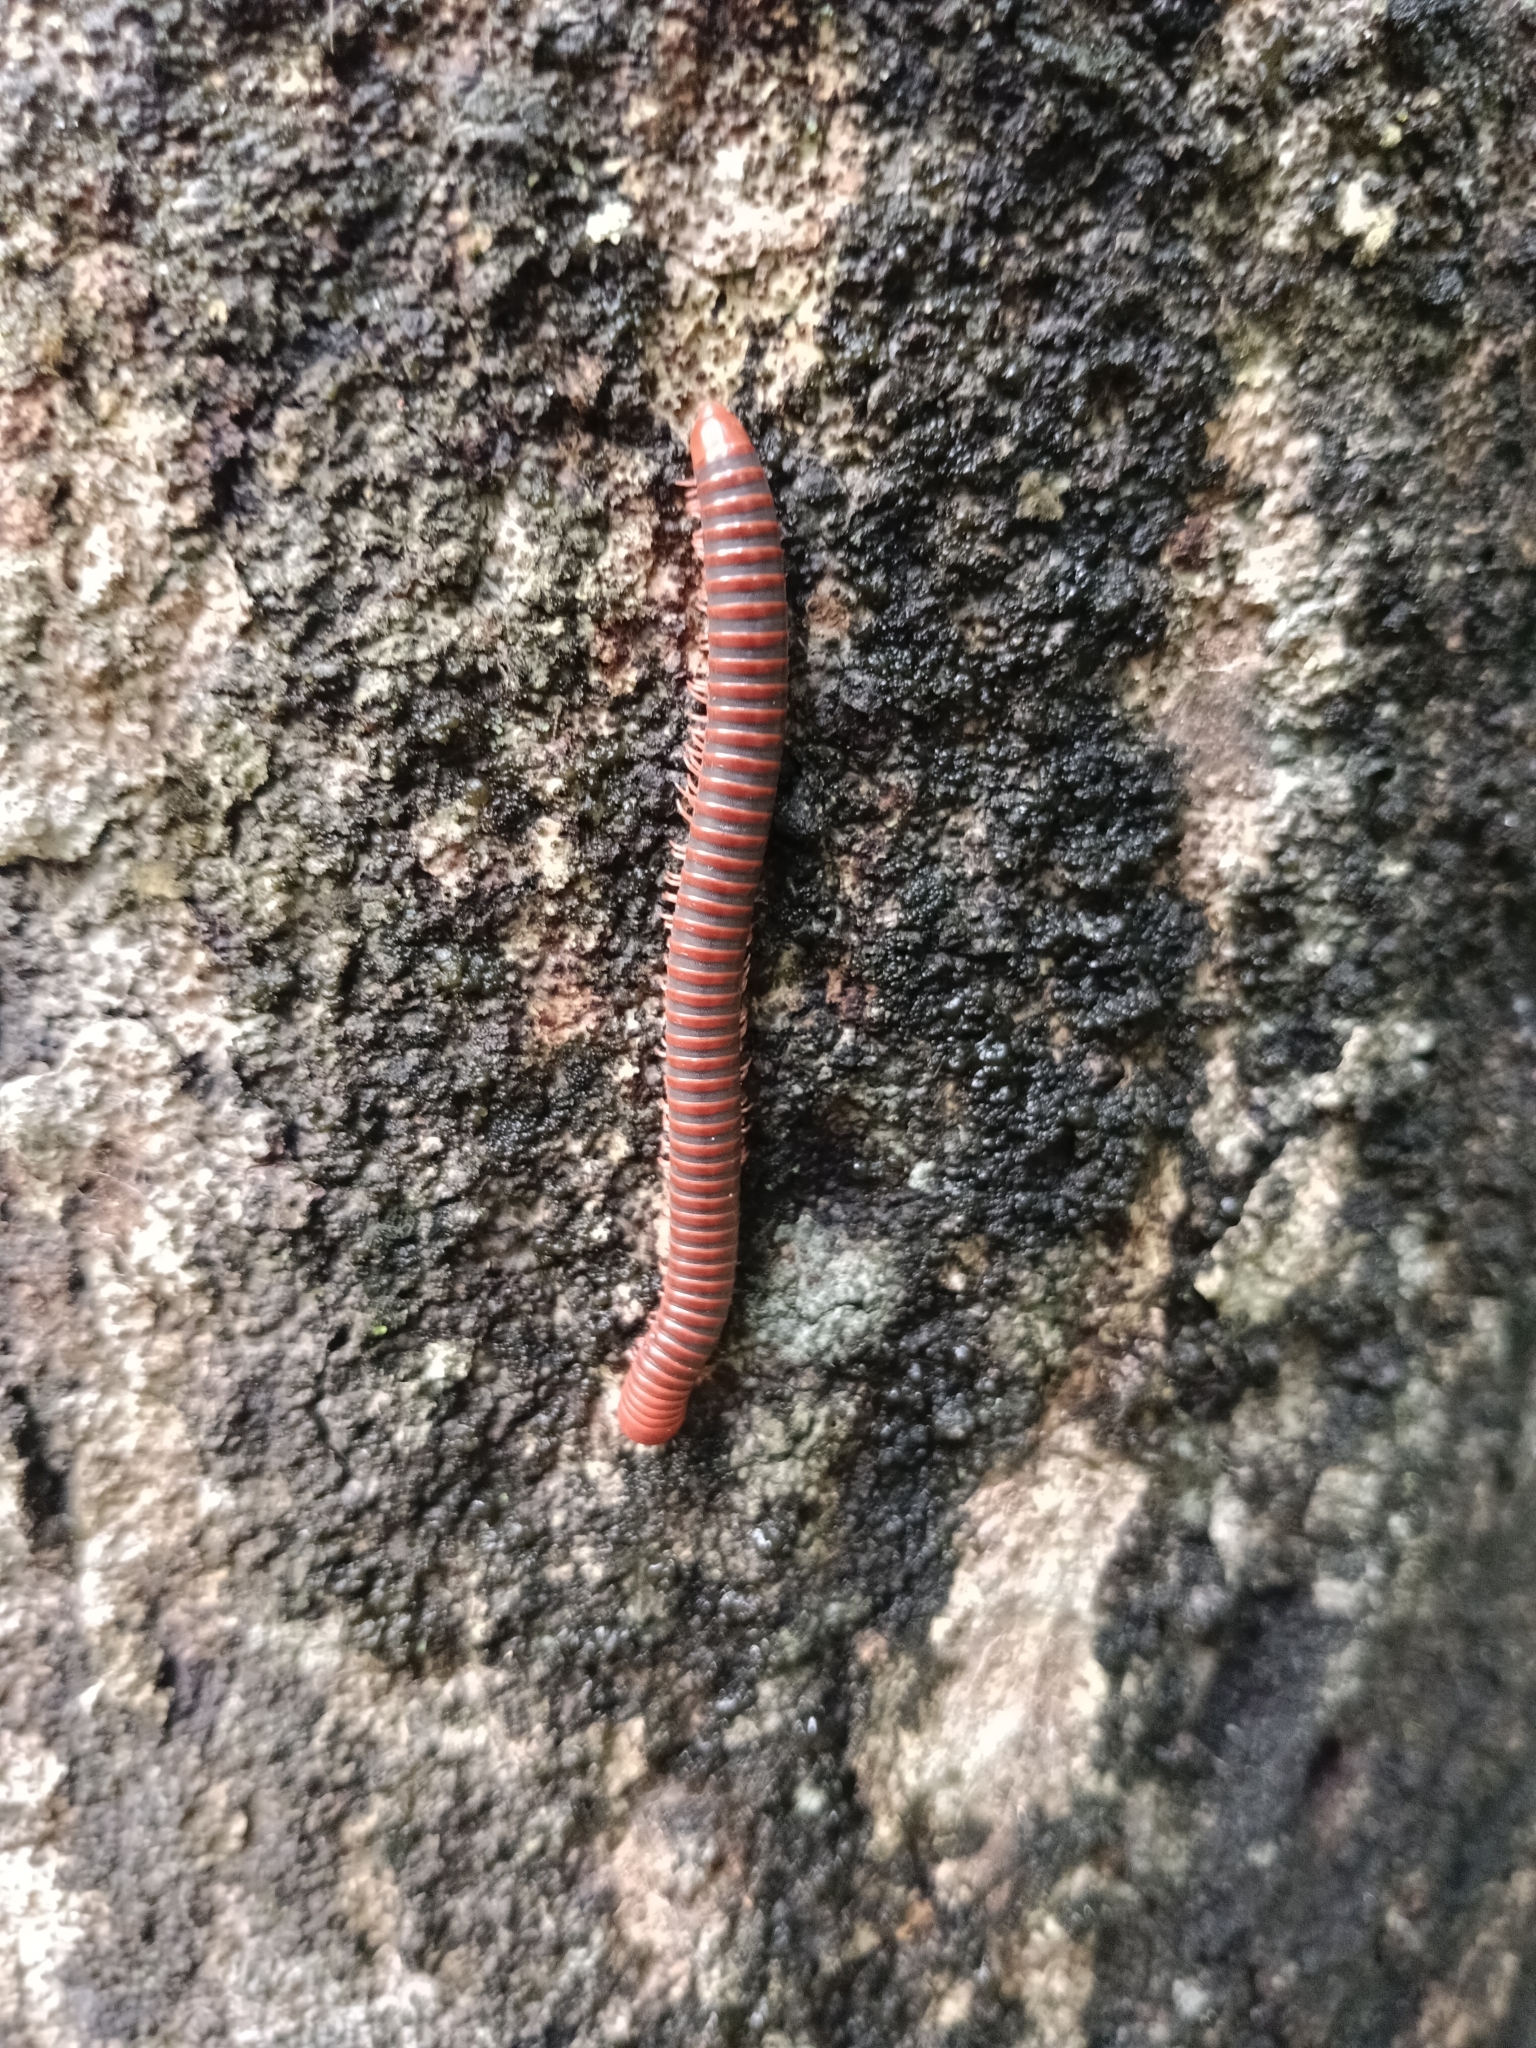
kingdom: Animalia
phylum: Arthropoda
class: Diplopoda
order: Spirobolida
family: Pachybolidae
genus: Trigoniulus
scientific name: Trigoniulus corallinus
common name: Millipede
